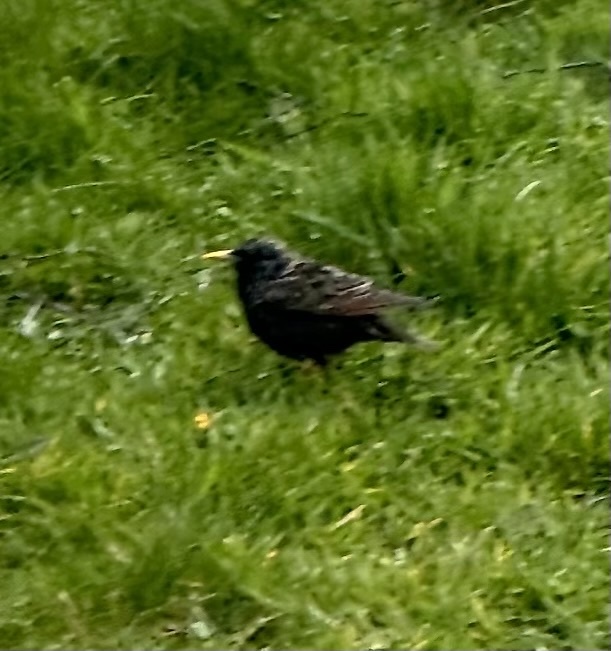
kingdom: Animalia
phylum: Chordata
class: Aves
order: Passeriformes
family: Sturnidae
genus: Sturnus
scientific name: Sturnus vulgaris
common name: Common starling
